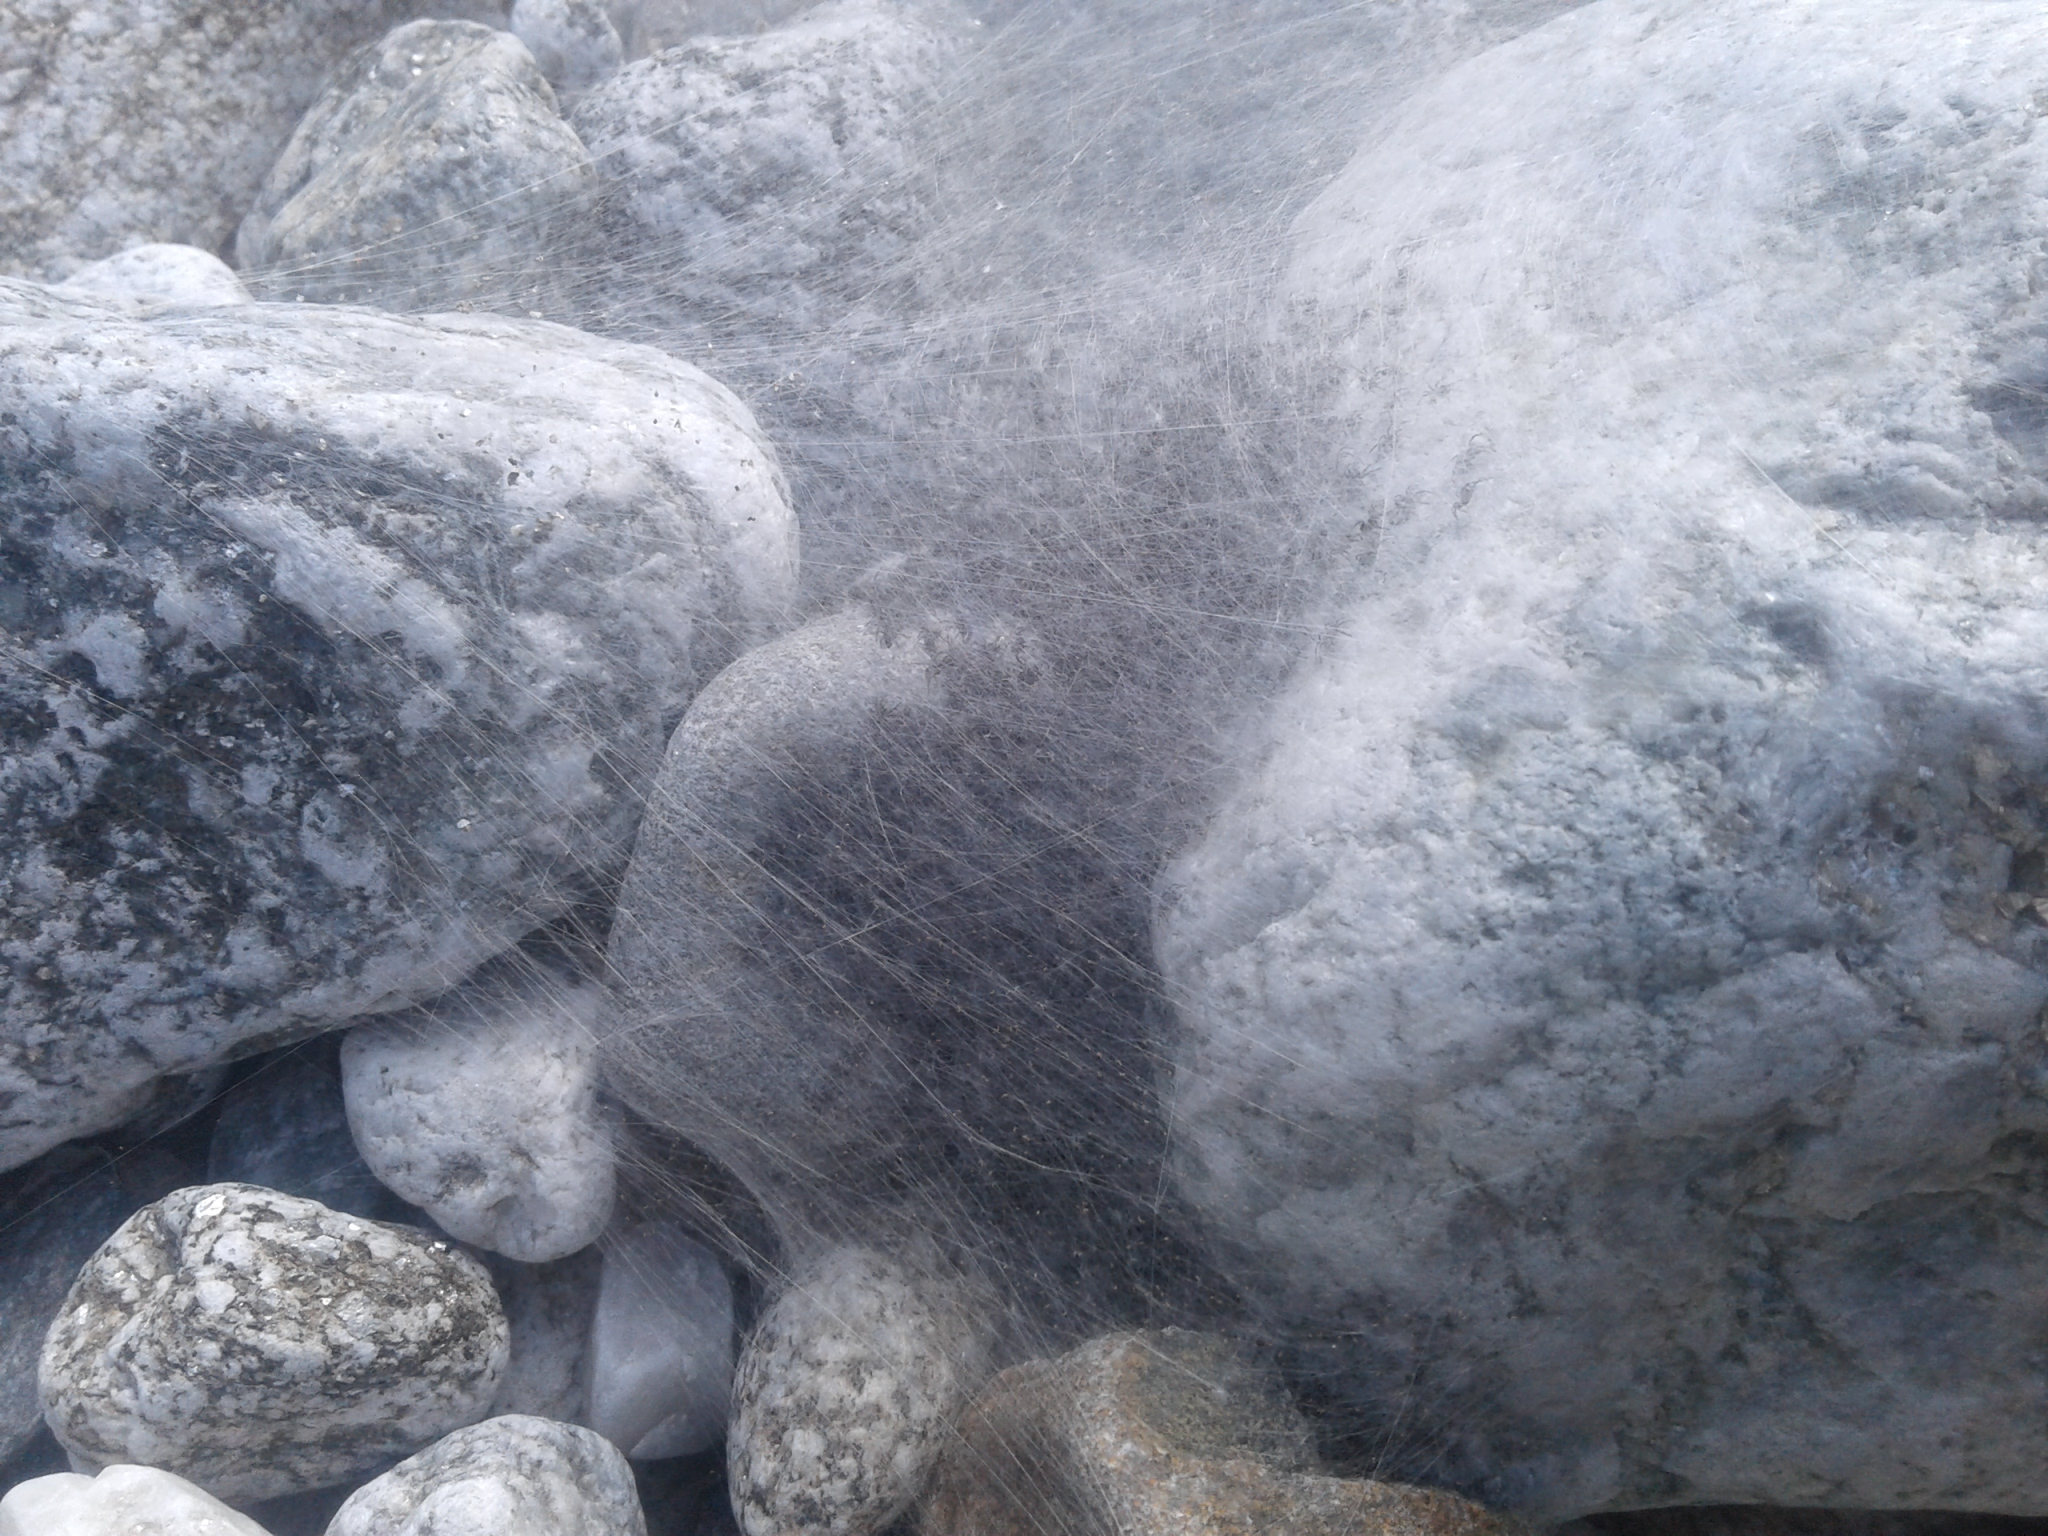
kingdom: Animalia
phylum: Arthropoda
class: Arachnida
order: Araneae
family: Pisauridae
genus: Dolomedes
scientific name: Dolomedes aquaticus
